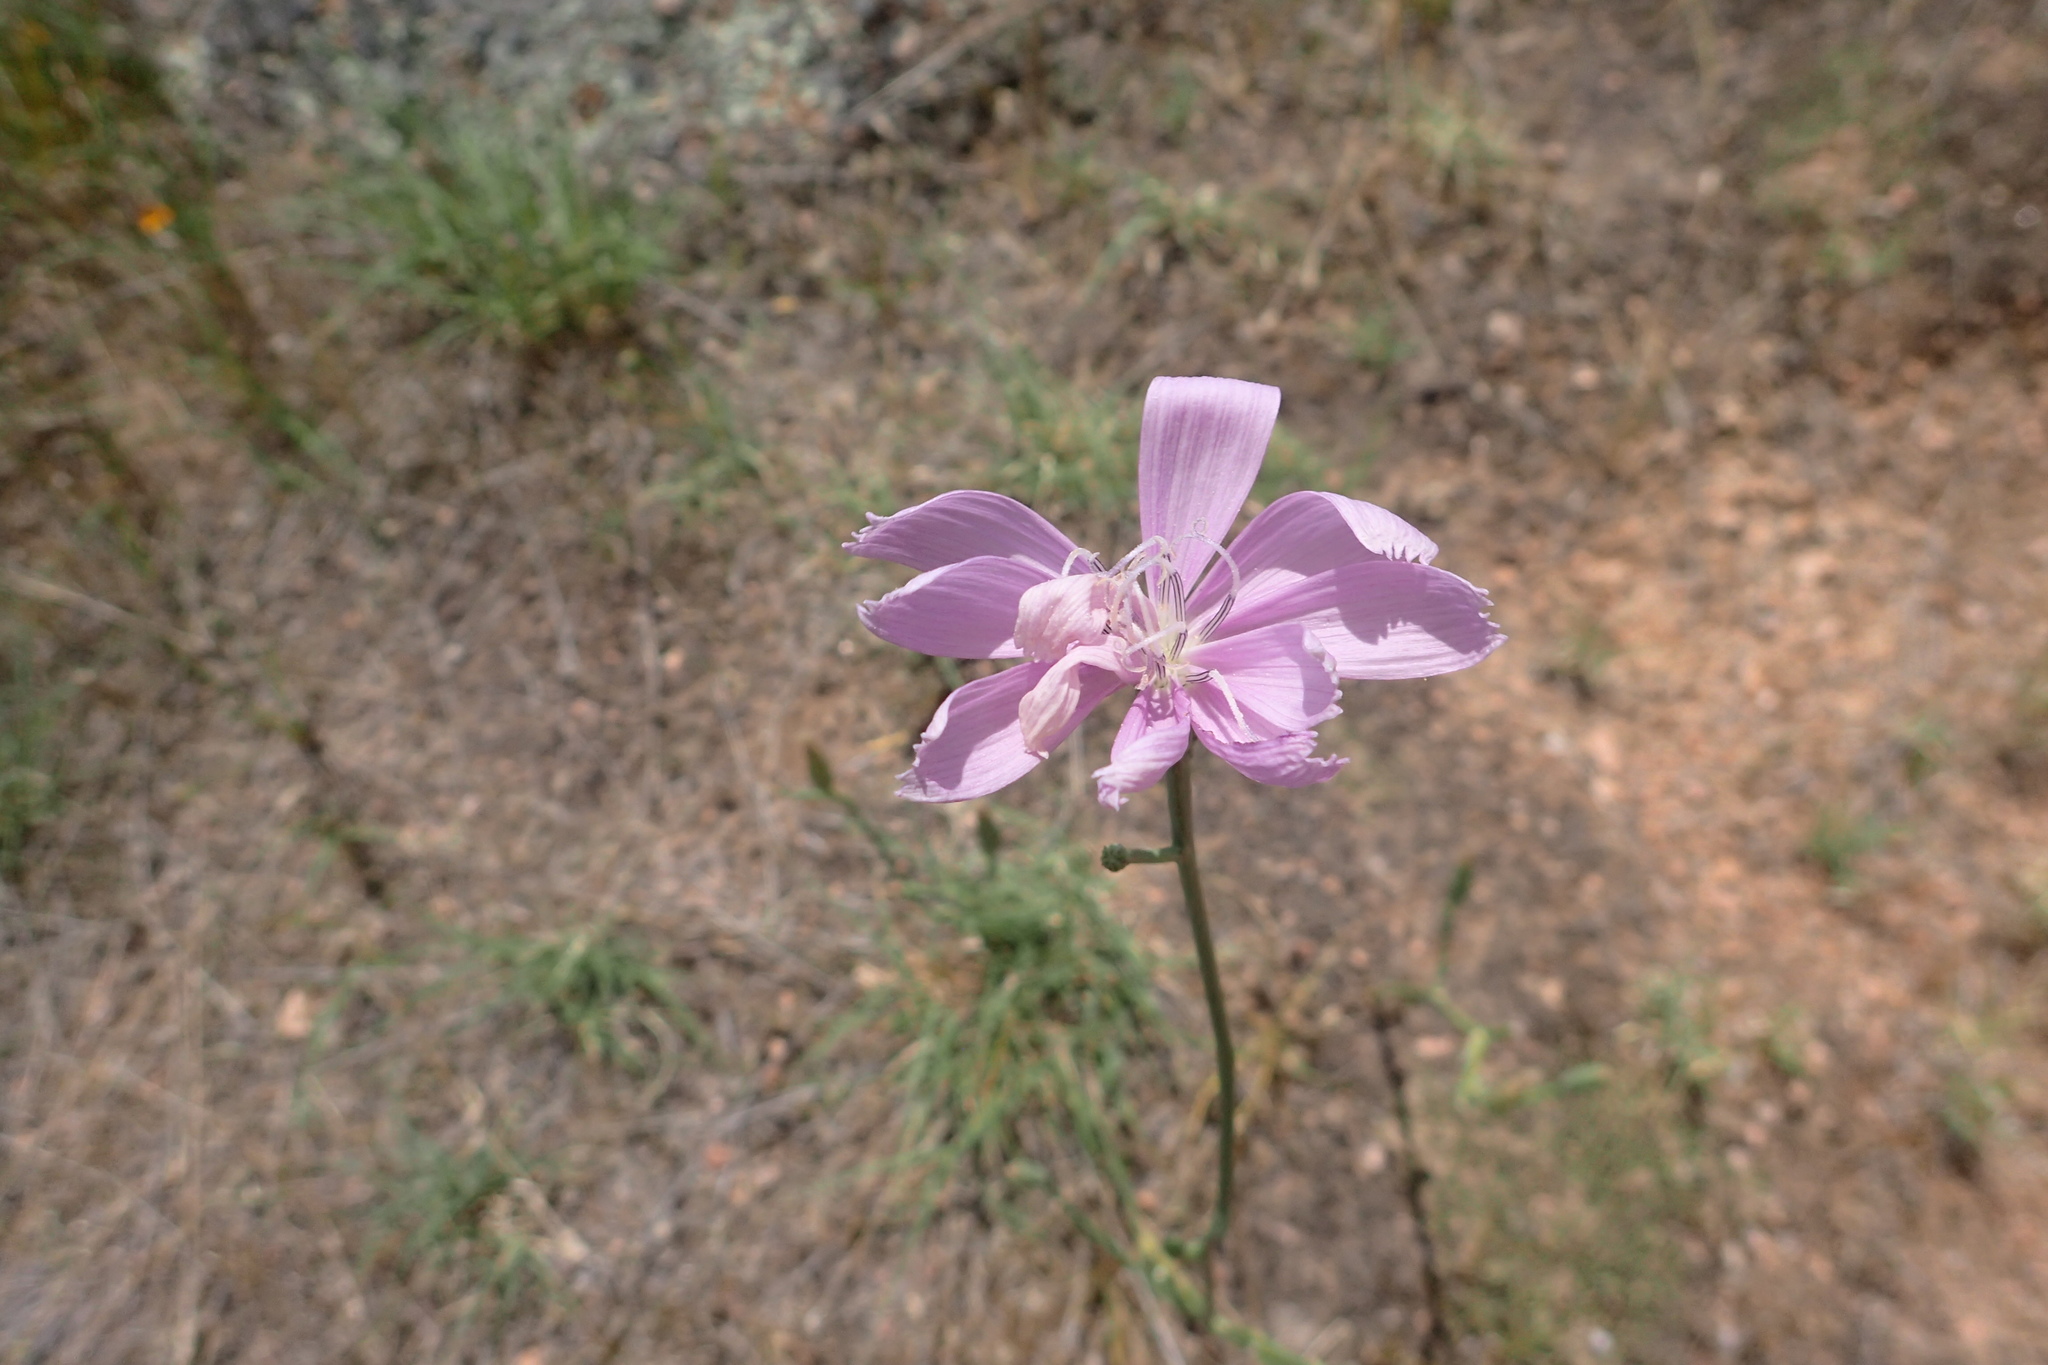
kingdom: Plantae
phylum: Tracheophyta
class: Magnoliopsida
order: Asterales
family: Asteraceae
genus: Lygodesmia
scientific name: Lygodesmia texana
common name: Texas skeleton-plant
